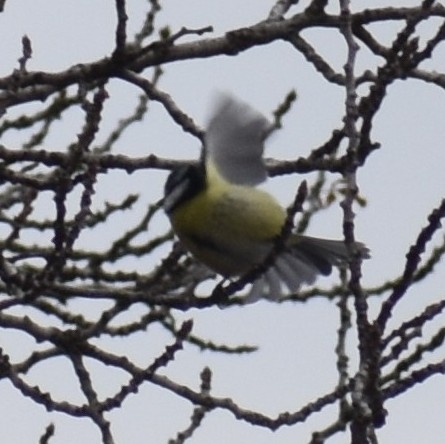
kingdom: Animalia
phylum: Chordata
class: Aves
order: Passeriformes
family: Paridae
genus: Cyanistes
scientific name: Cyanistes caeruleus
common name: Eurasian blue tit
